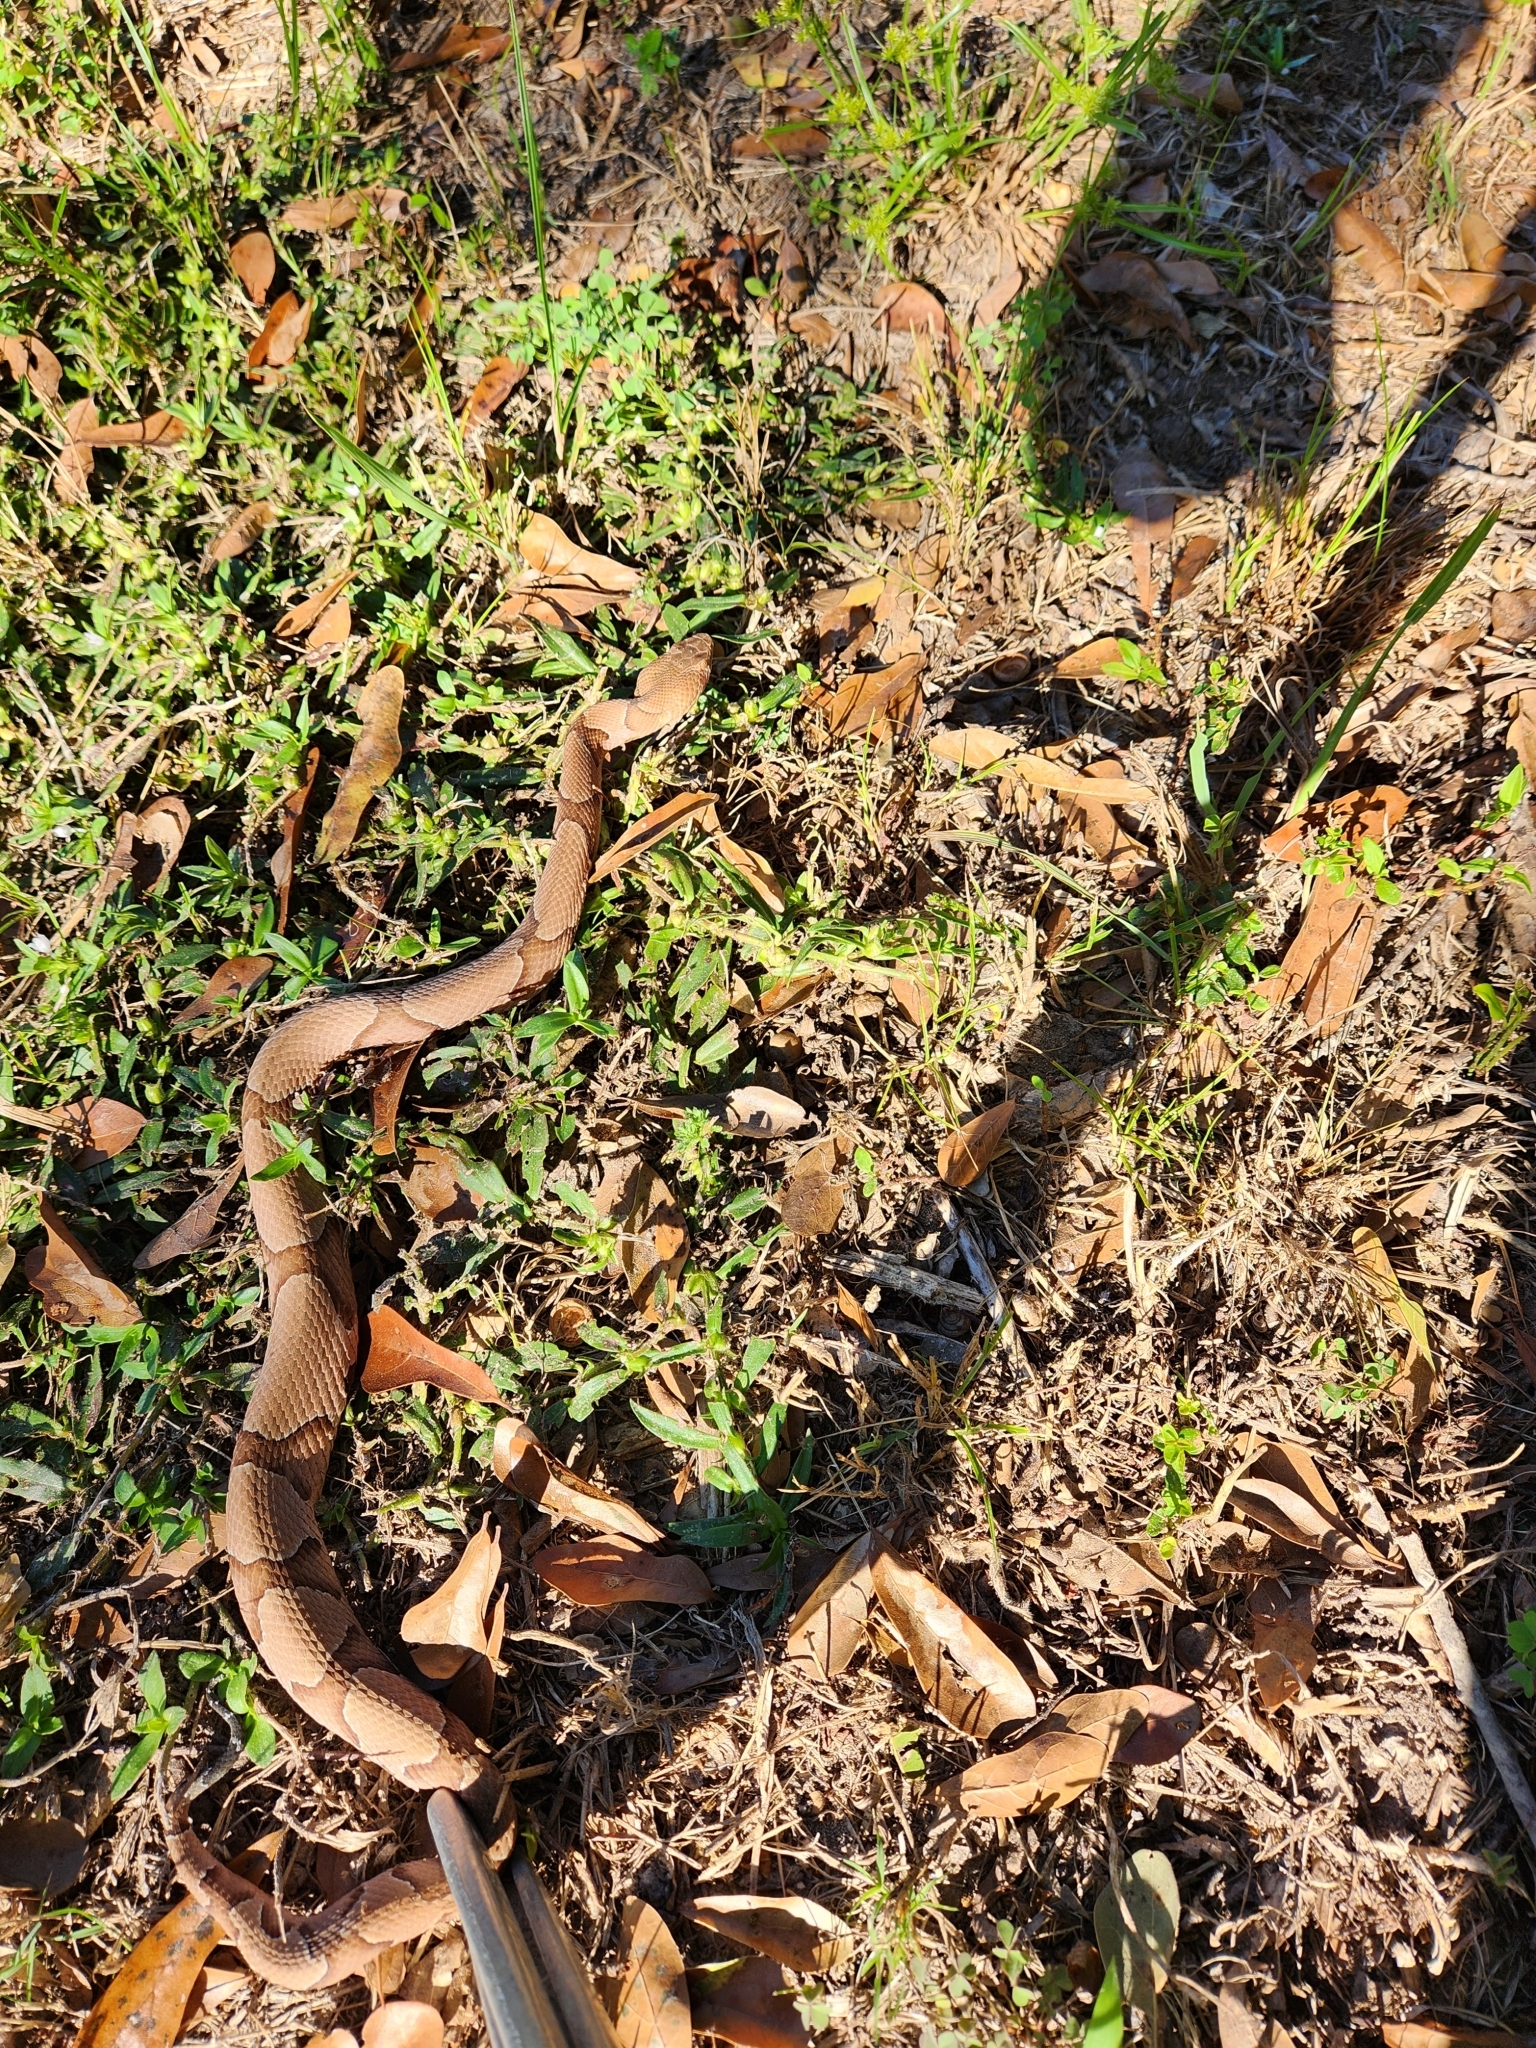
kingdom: Animalia
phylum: Chordata
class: Squamata
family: Viperidae
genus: Agkistrodon
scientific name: Agkistrodon contortrix
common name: Northern copperhead
